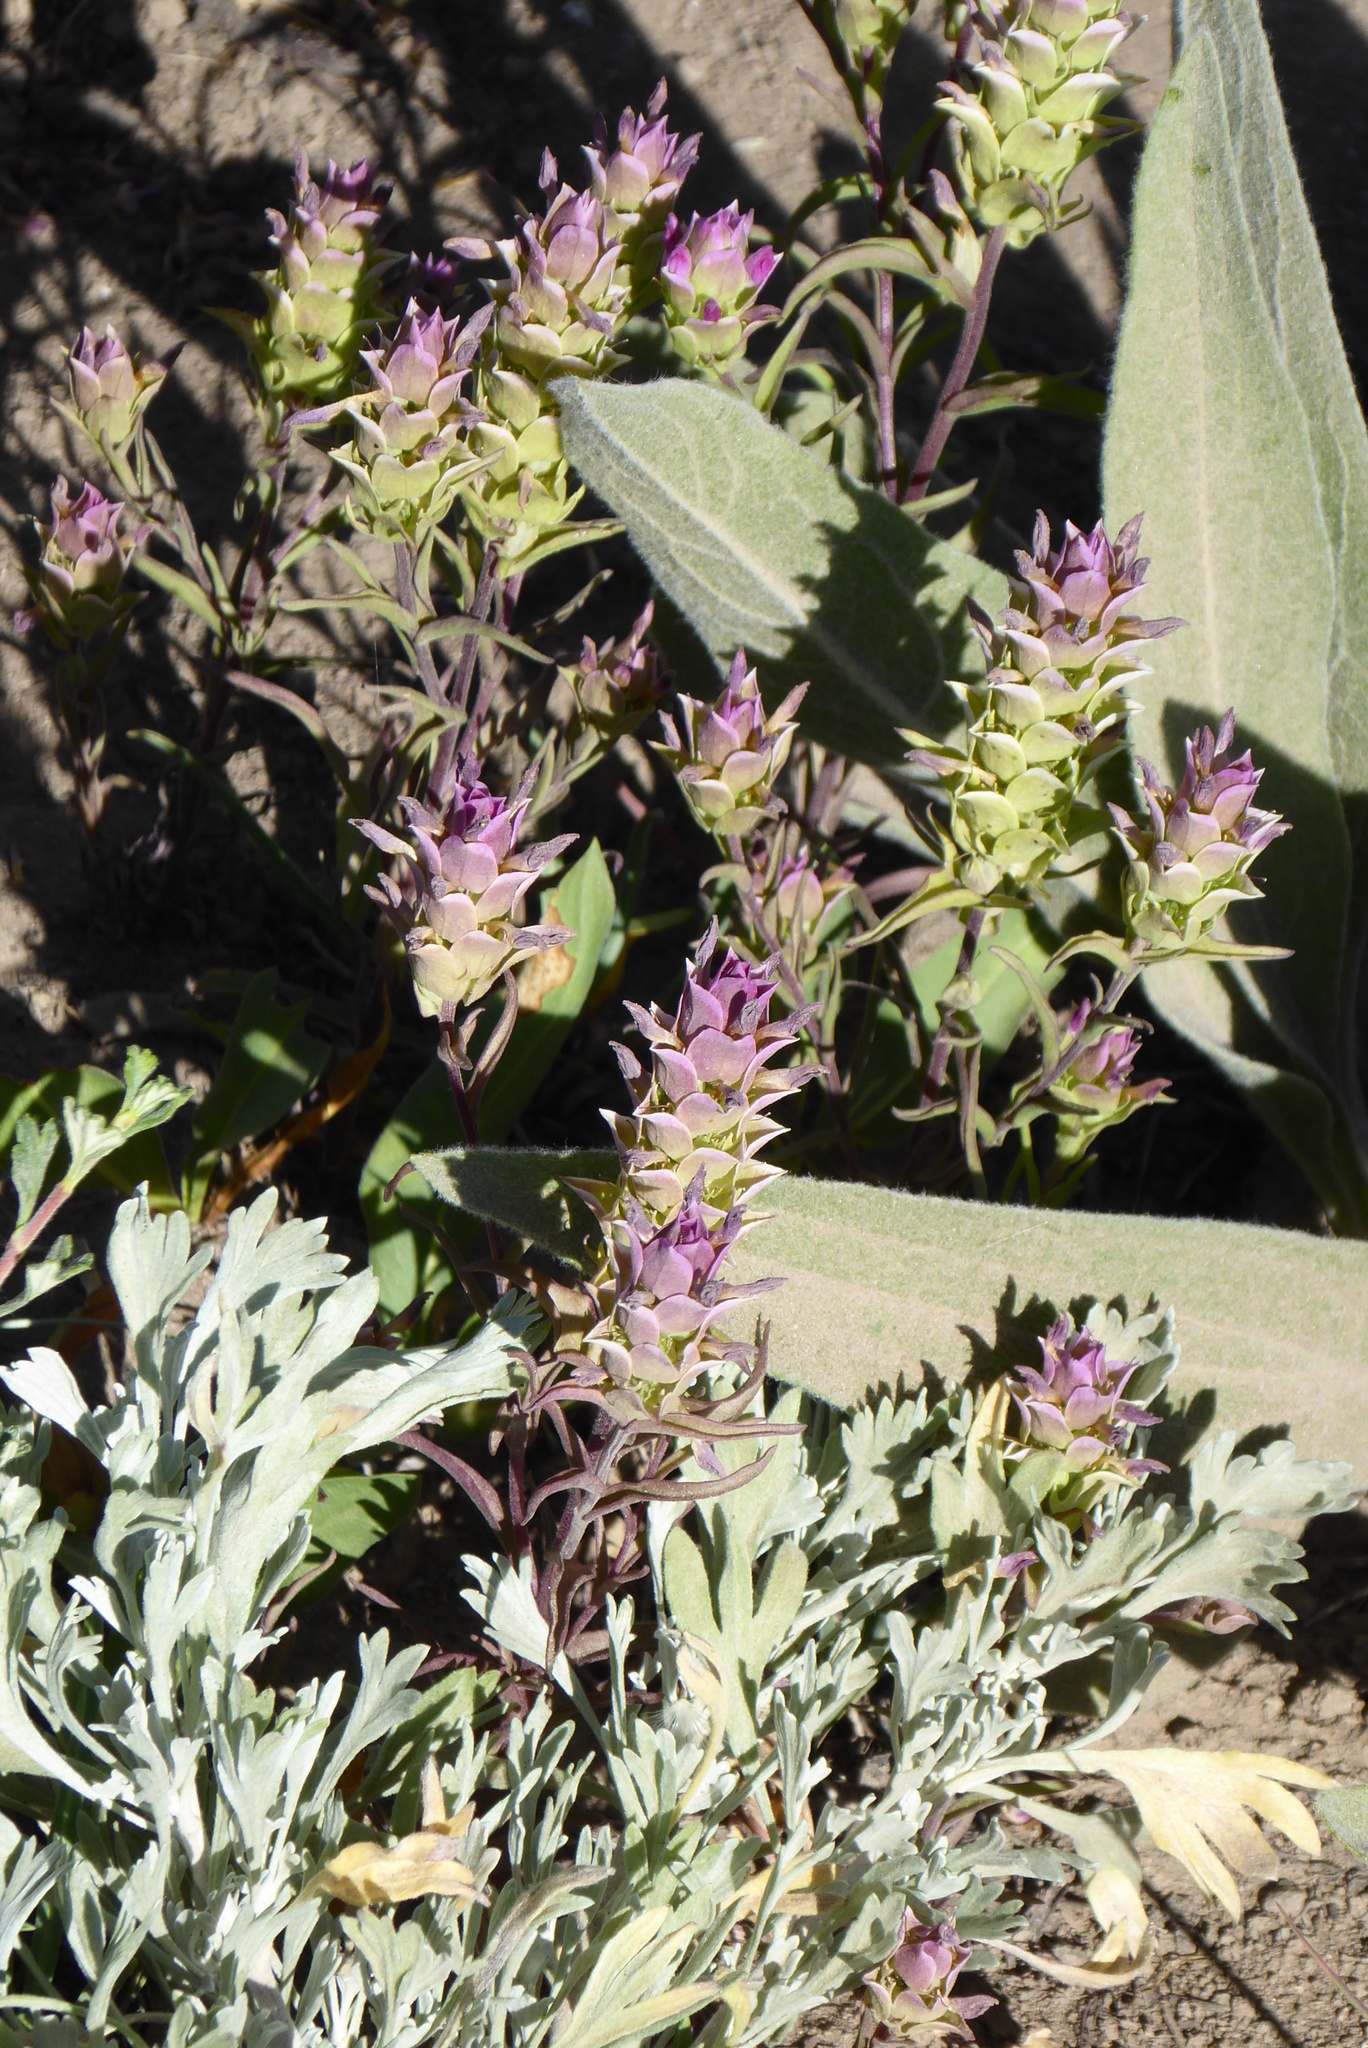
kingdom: Plantae
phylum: Tracheophyta
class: Magnoliopsida
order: Lamiales
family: Orobanchaceae
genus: Orthocarpus
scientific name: Orthocarpus cuspidatus
